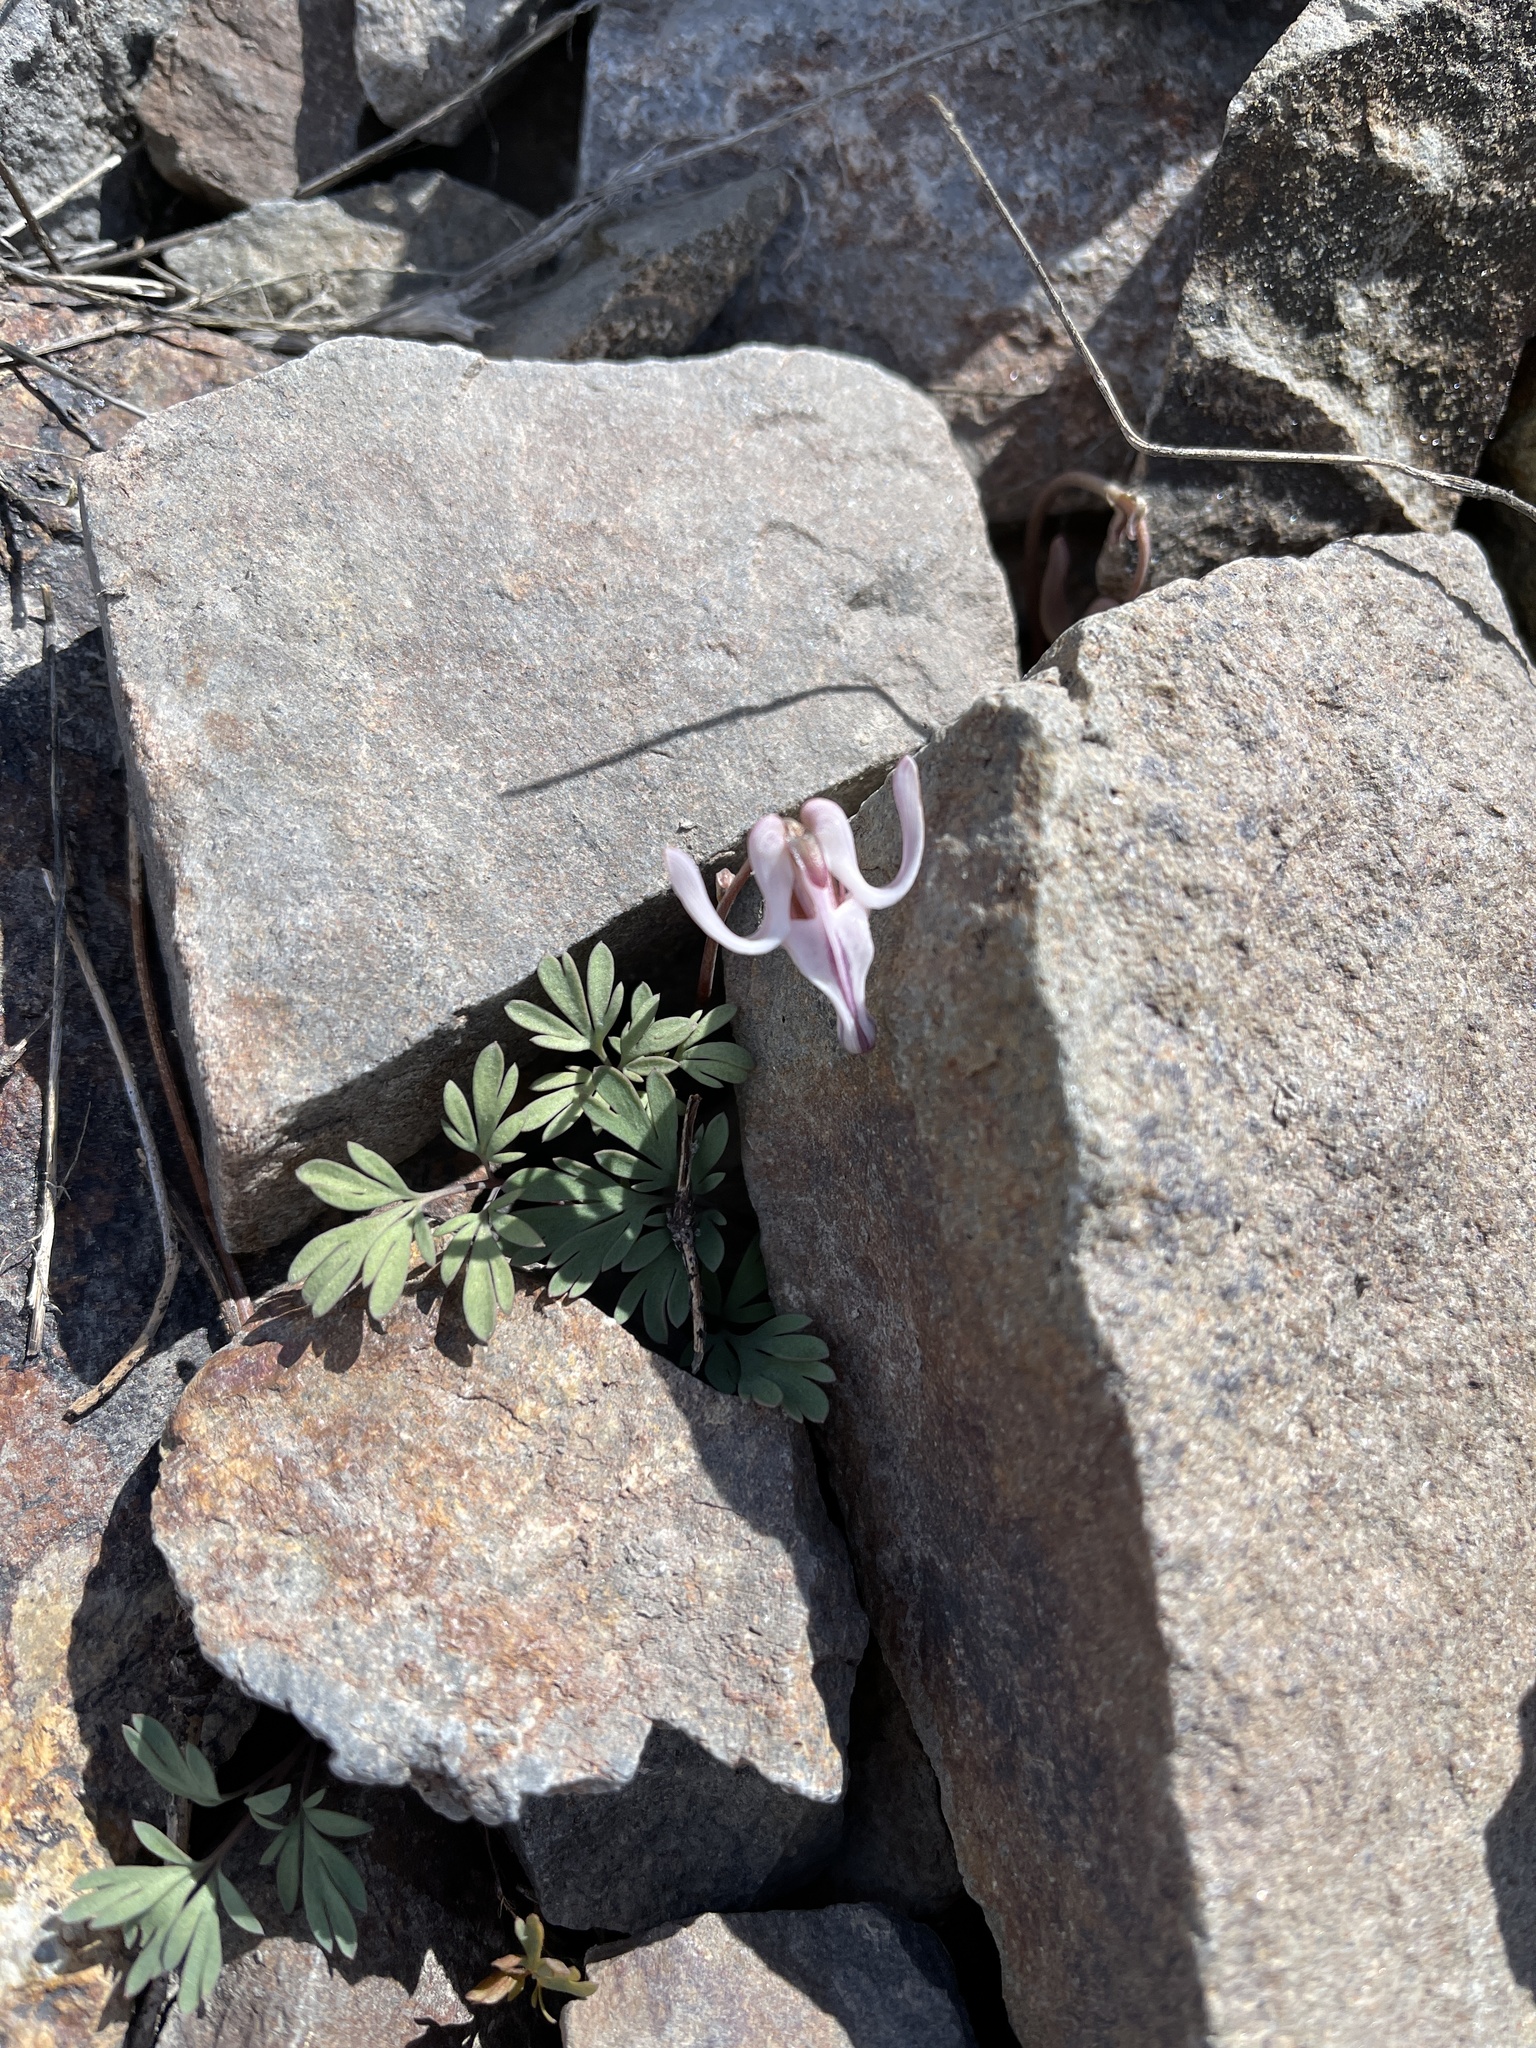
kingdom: Plantae
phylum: Tracheophyta
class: Magnoliopsida
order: Ranunculales
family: Papaveraceae
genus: Dicentra
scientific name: Dicentra uniflora
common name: Steer's-head
